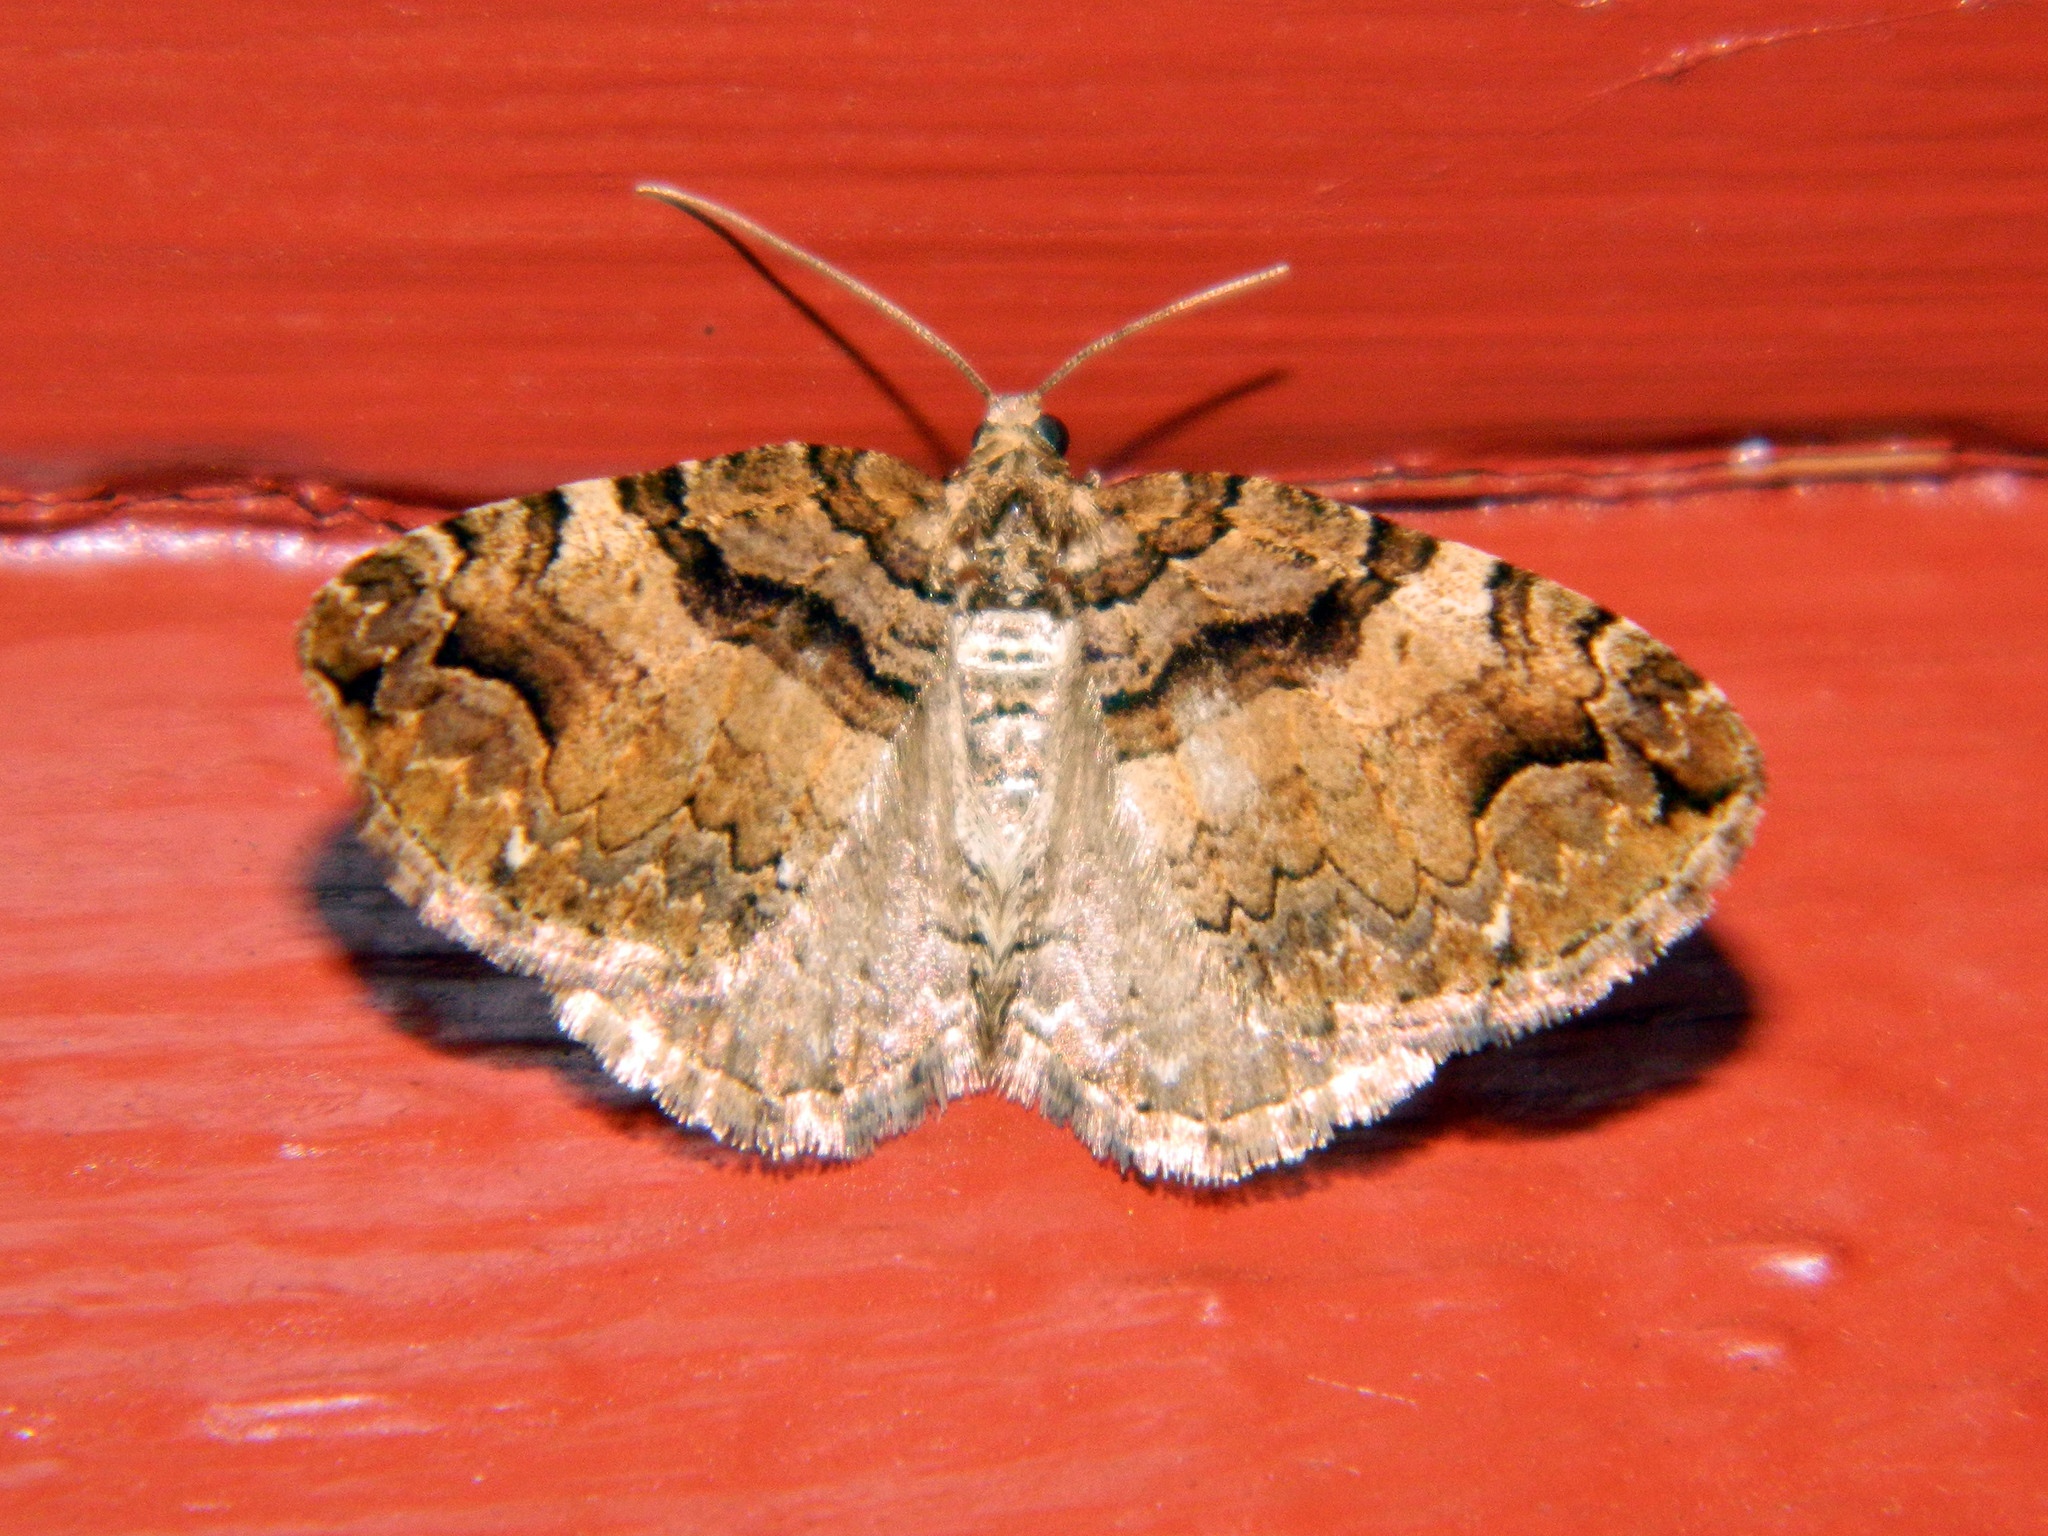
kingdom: Animalia
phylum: Arthropoda
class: Insecta
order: Lepidoptera
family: Geometridae
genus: Anticlea
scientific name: Anticlea vasiliata
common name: Variable carpet
